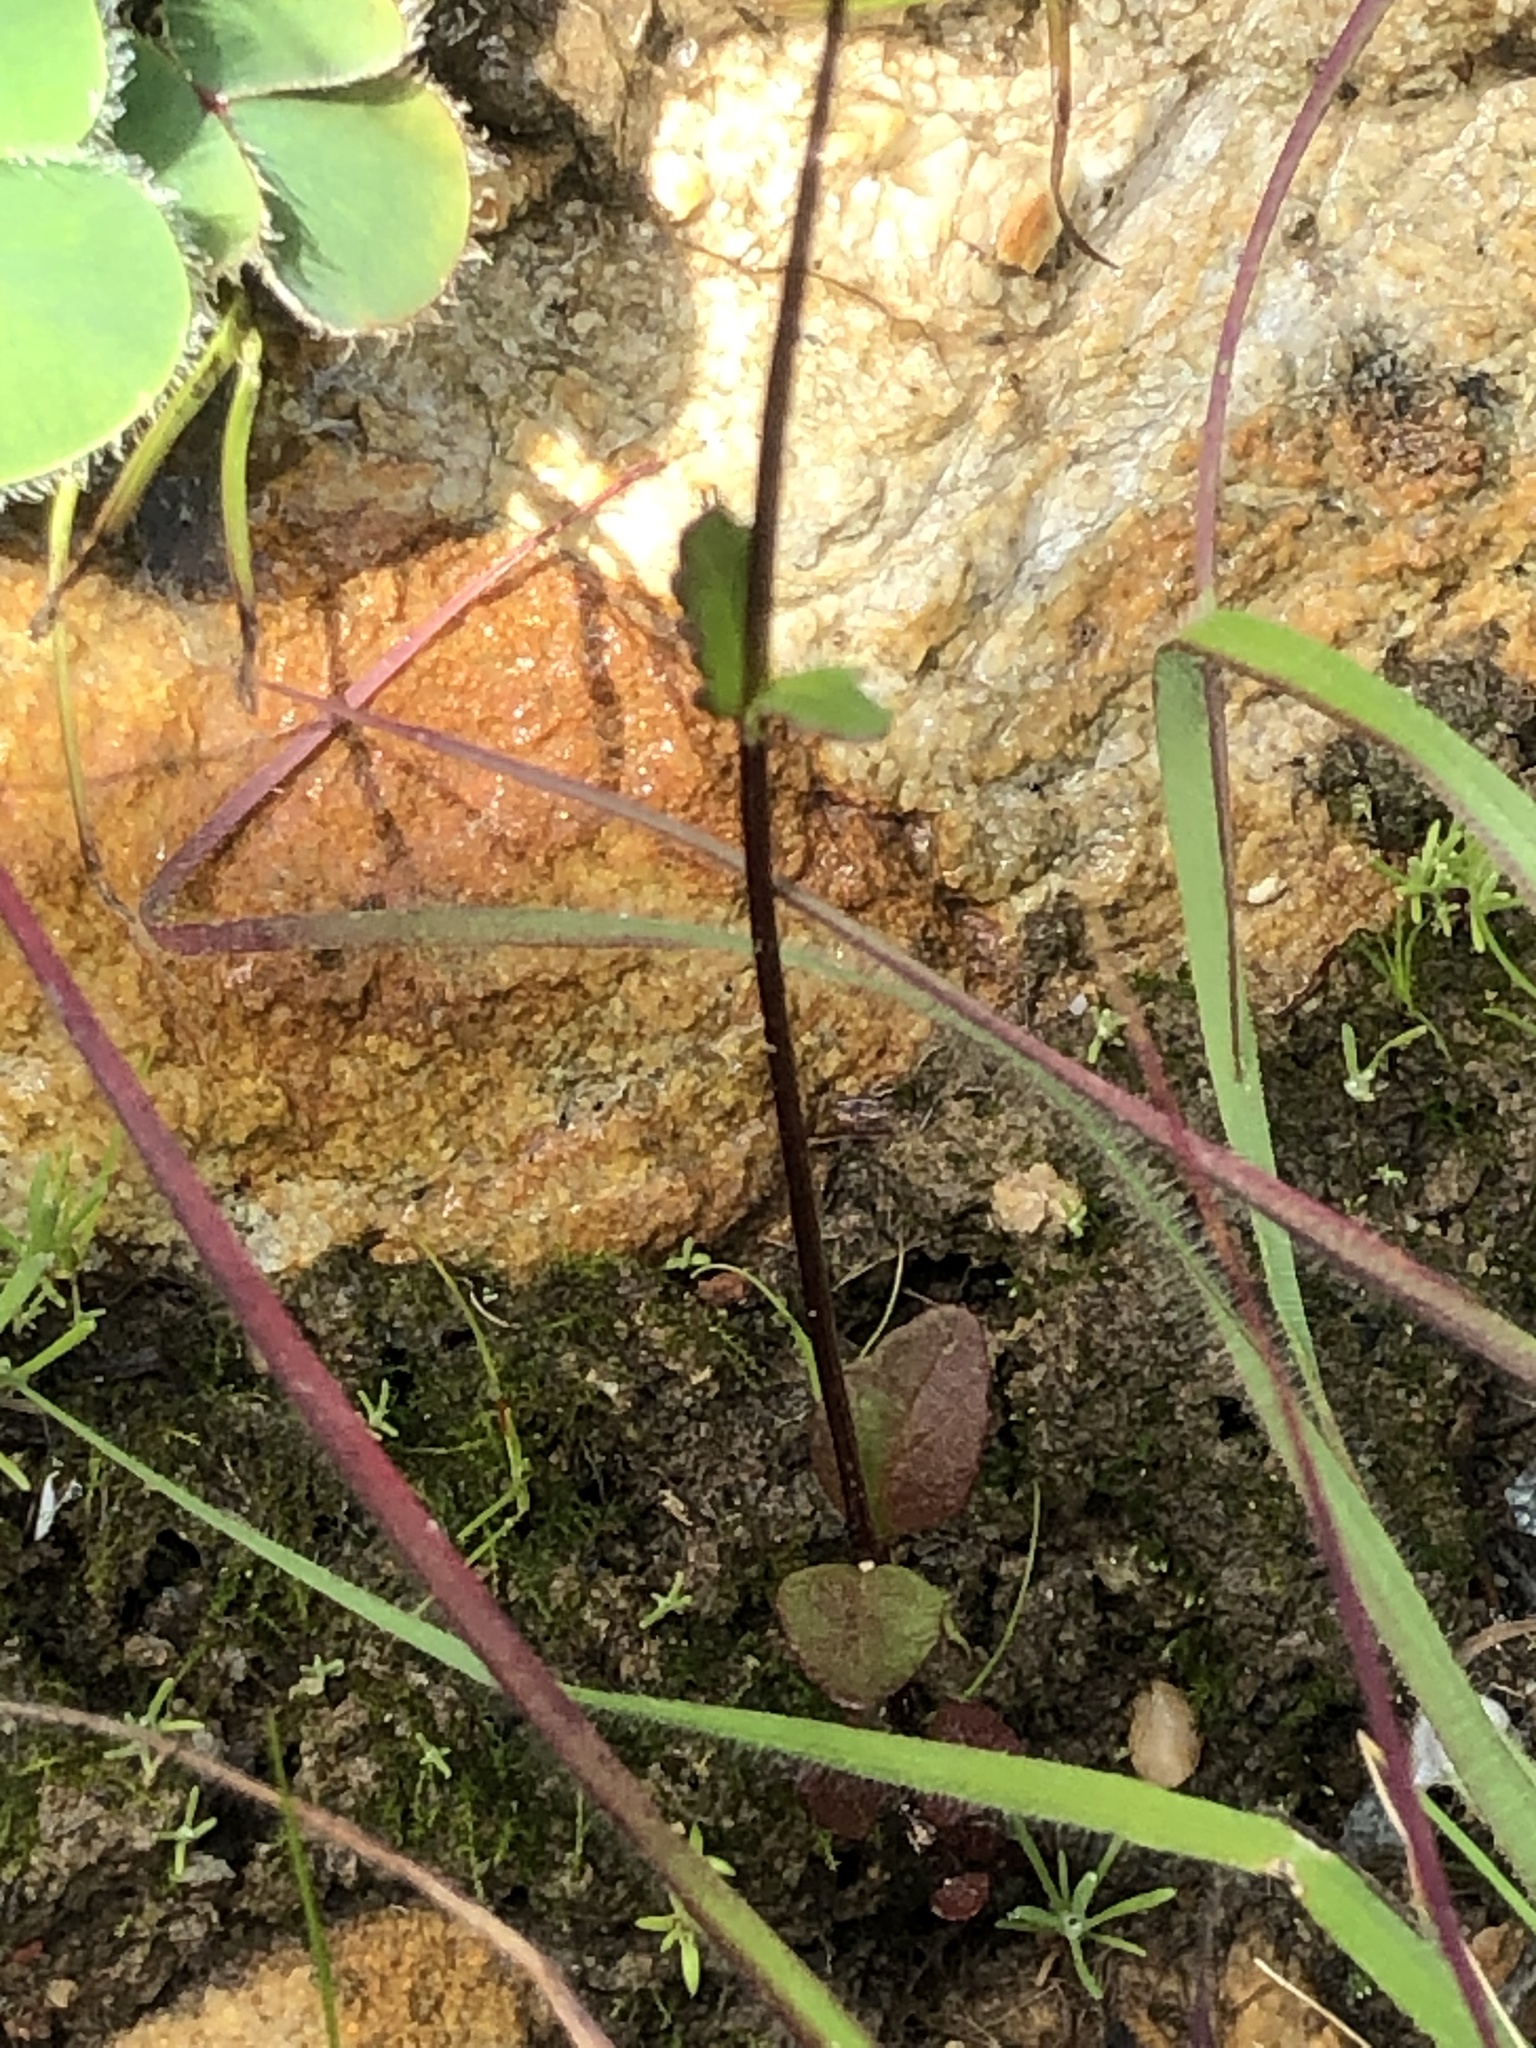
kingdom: Plantae
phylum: Tracheophyta
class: Magnoliopsida
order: Lamiales
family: Scrophulariaceae
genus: Nemesia
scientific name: Nemesia barbata
